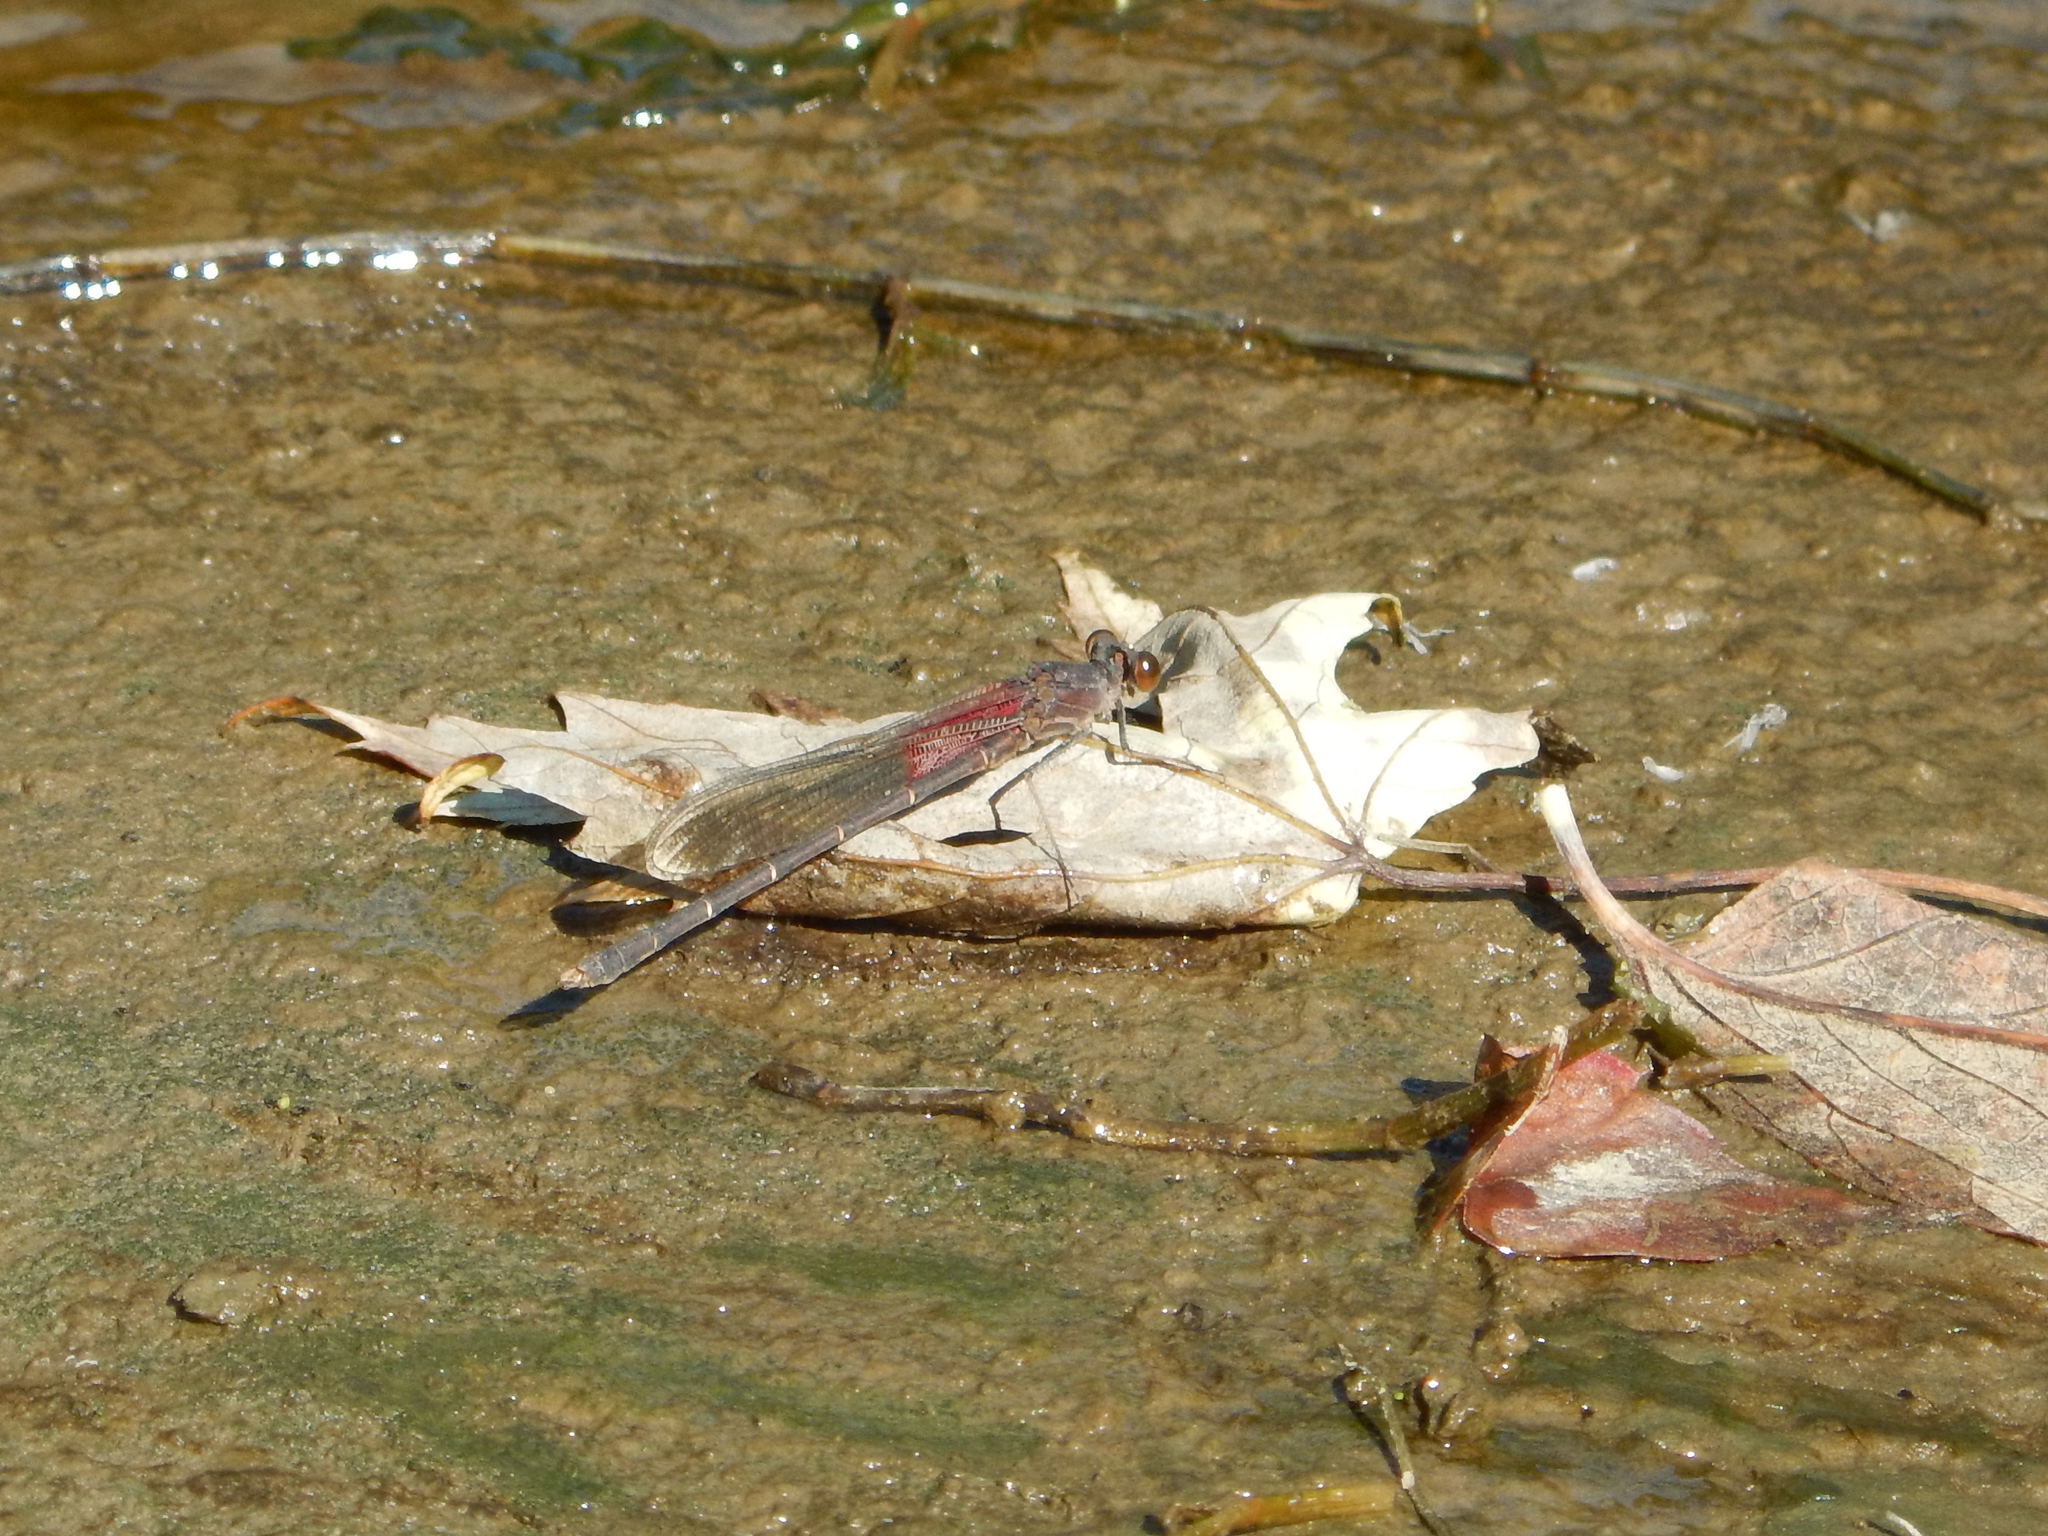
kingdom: Animalia
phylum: Arthropoda
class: Insecta
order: Odonata
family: Calopterygidae
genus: Hetaerina
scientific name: Hetaerina americana
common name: American rubyspot
